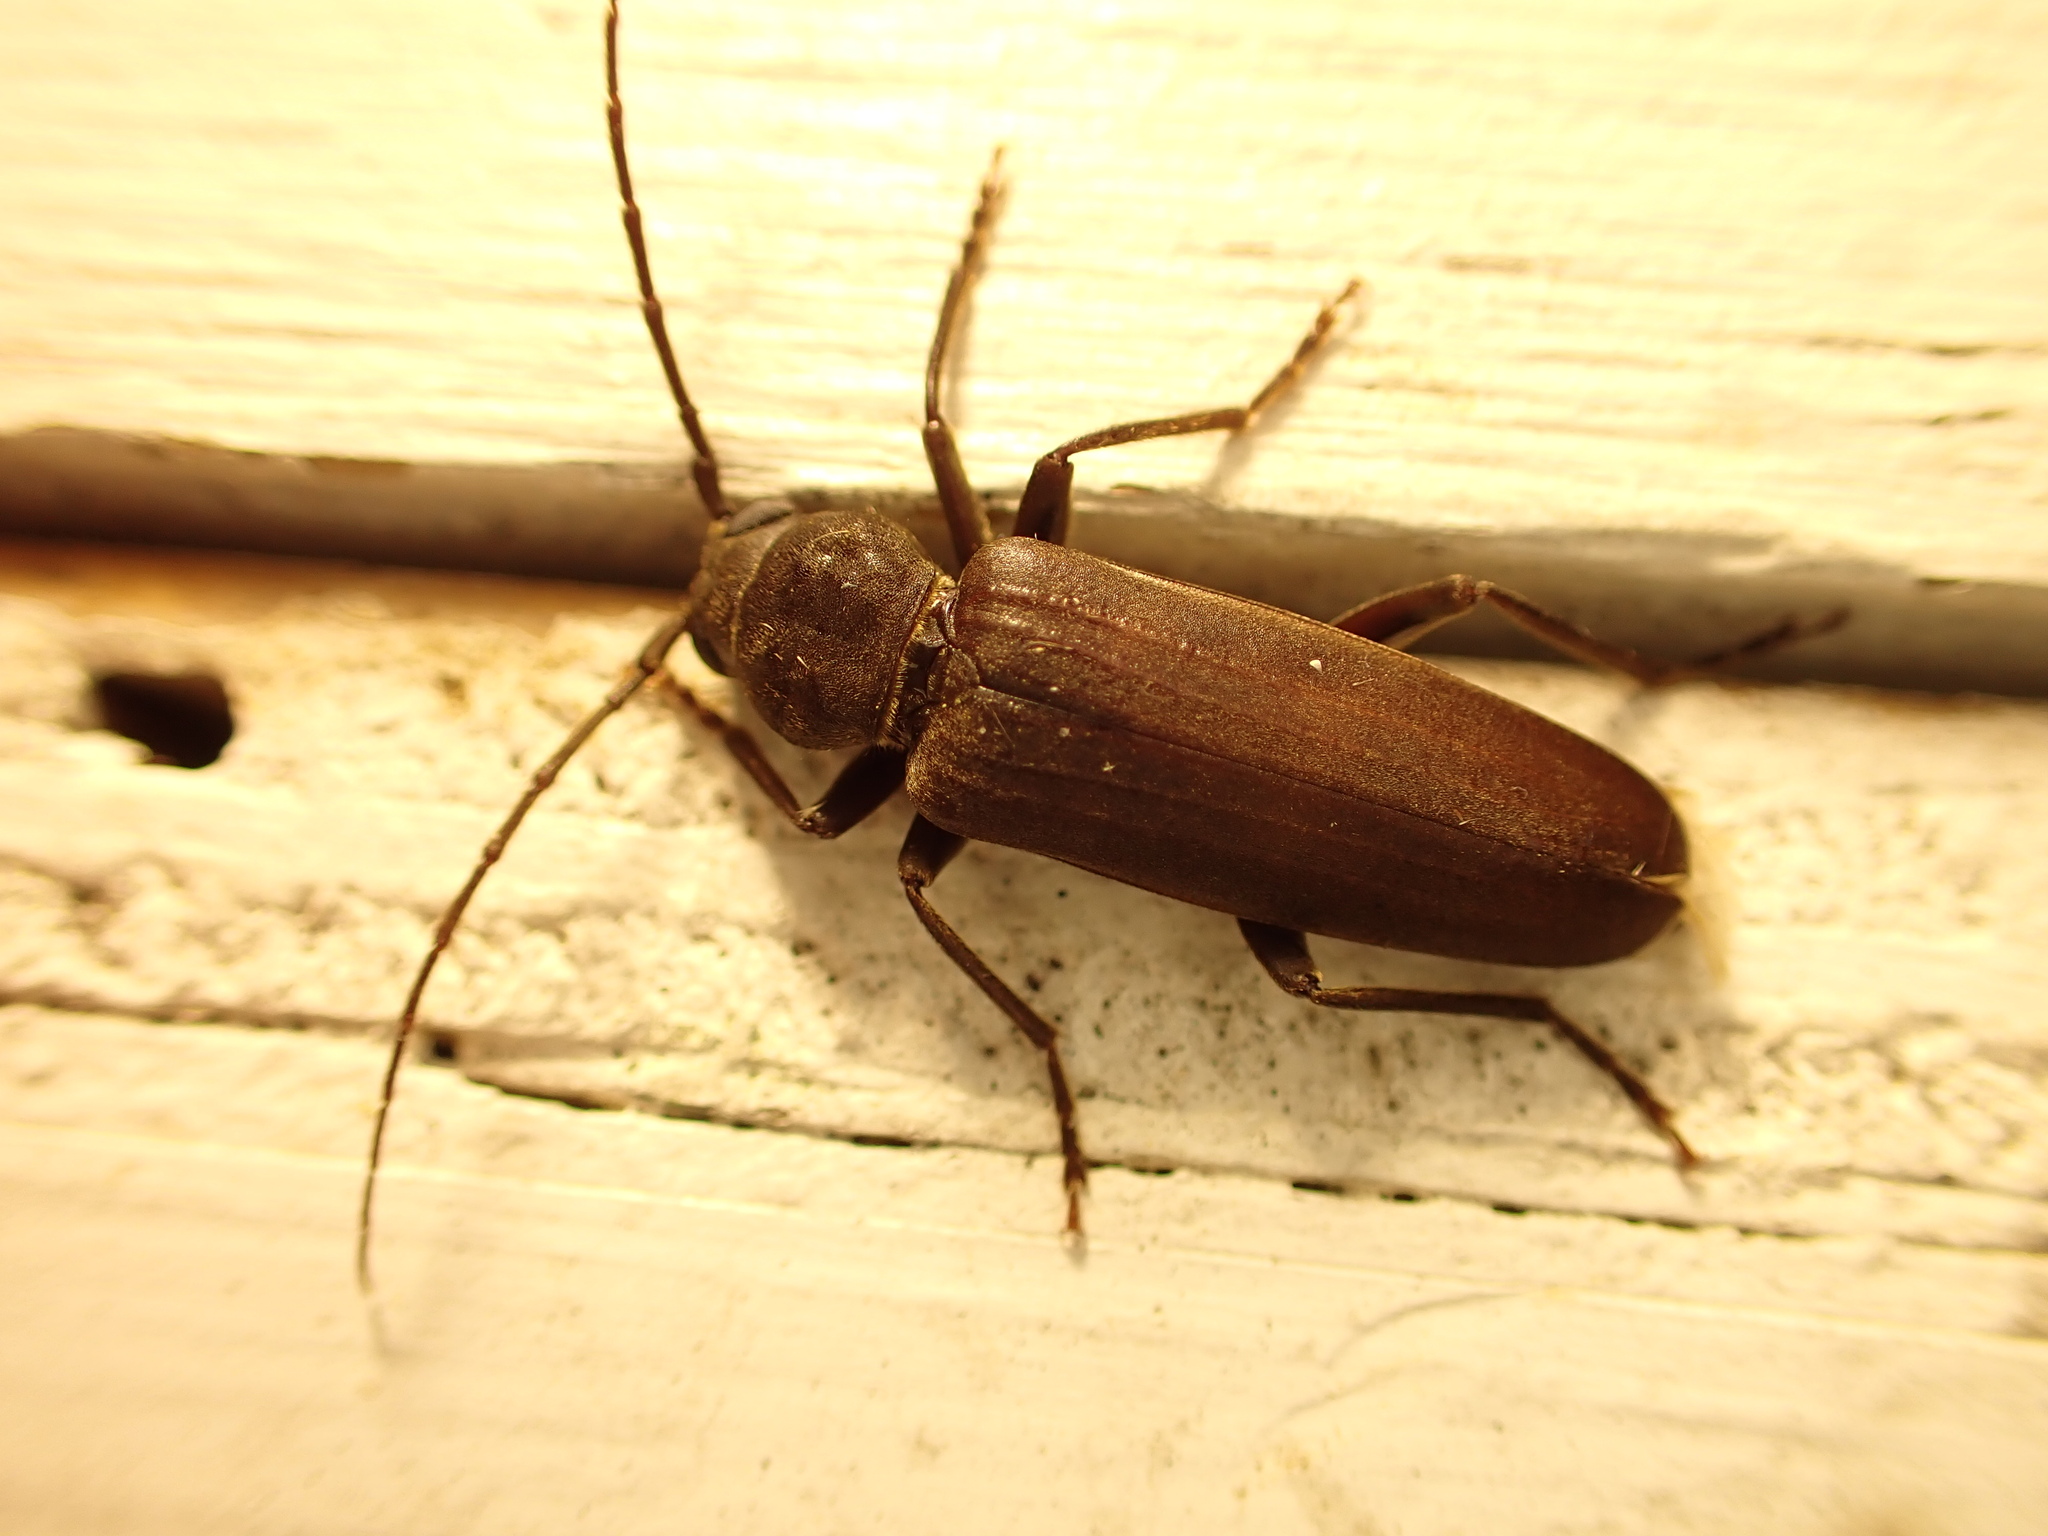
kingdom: Animalia
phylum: Arthropoda
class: Insecta
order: Coleoptera
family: Cerambycidae
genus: Arhopalus
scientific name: Arhopalus ferus
